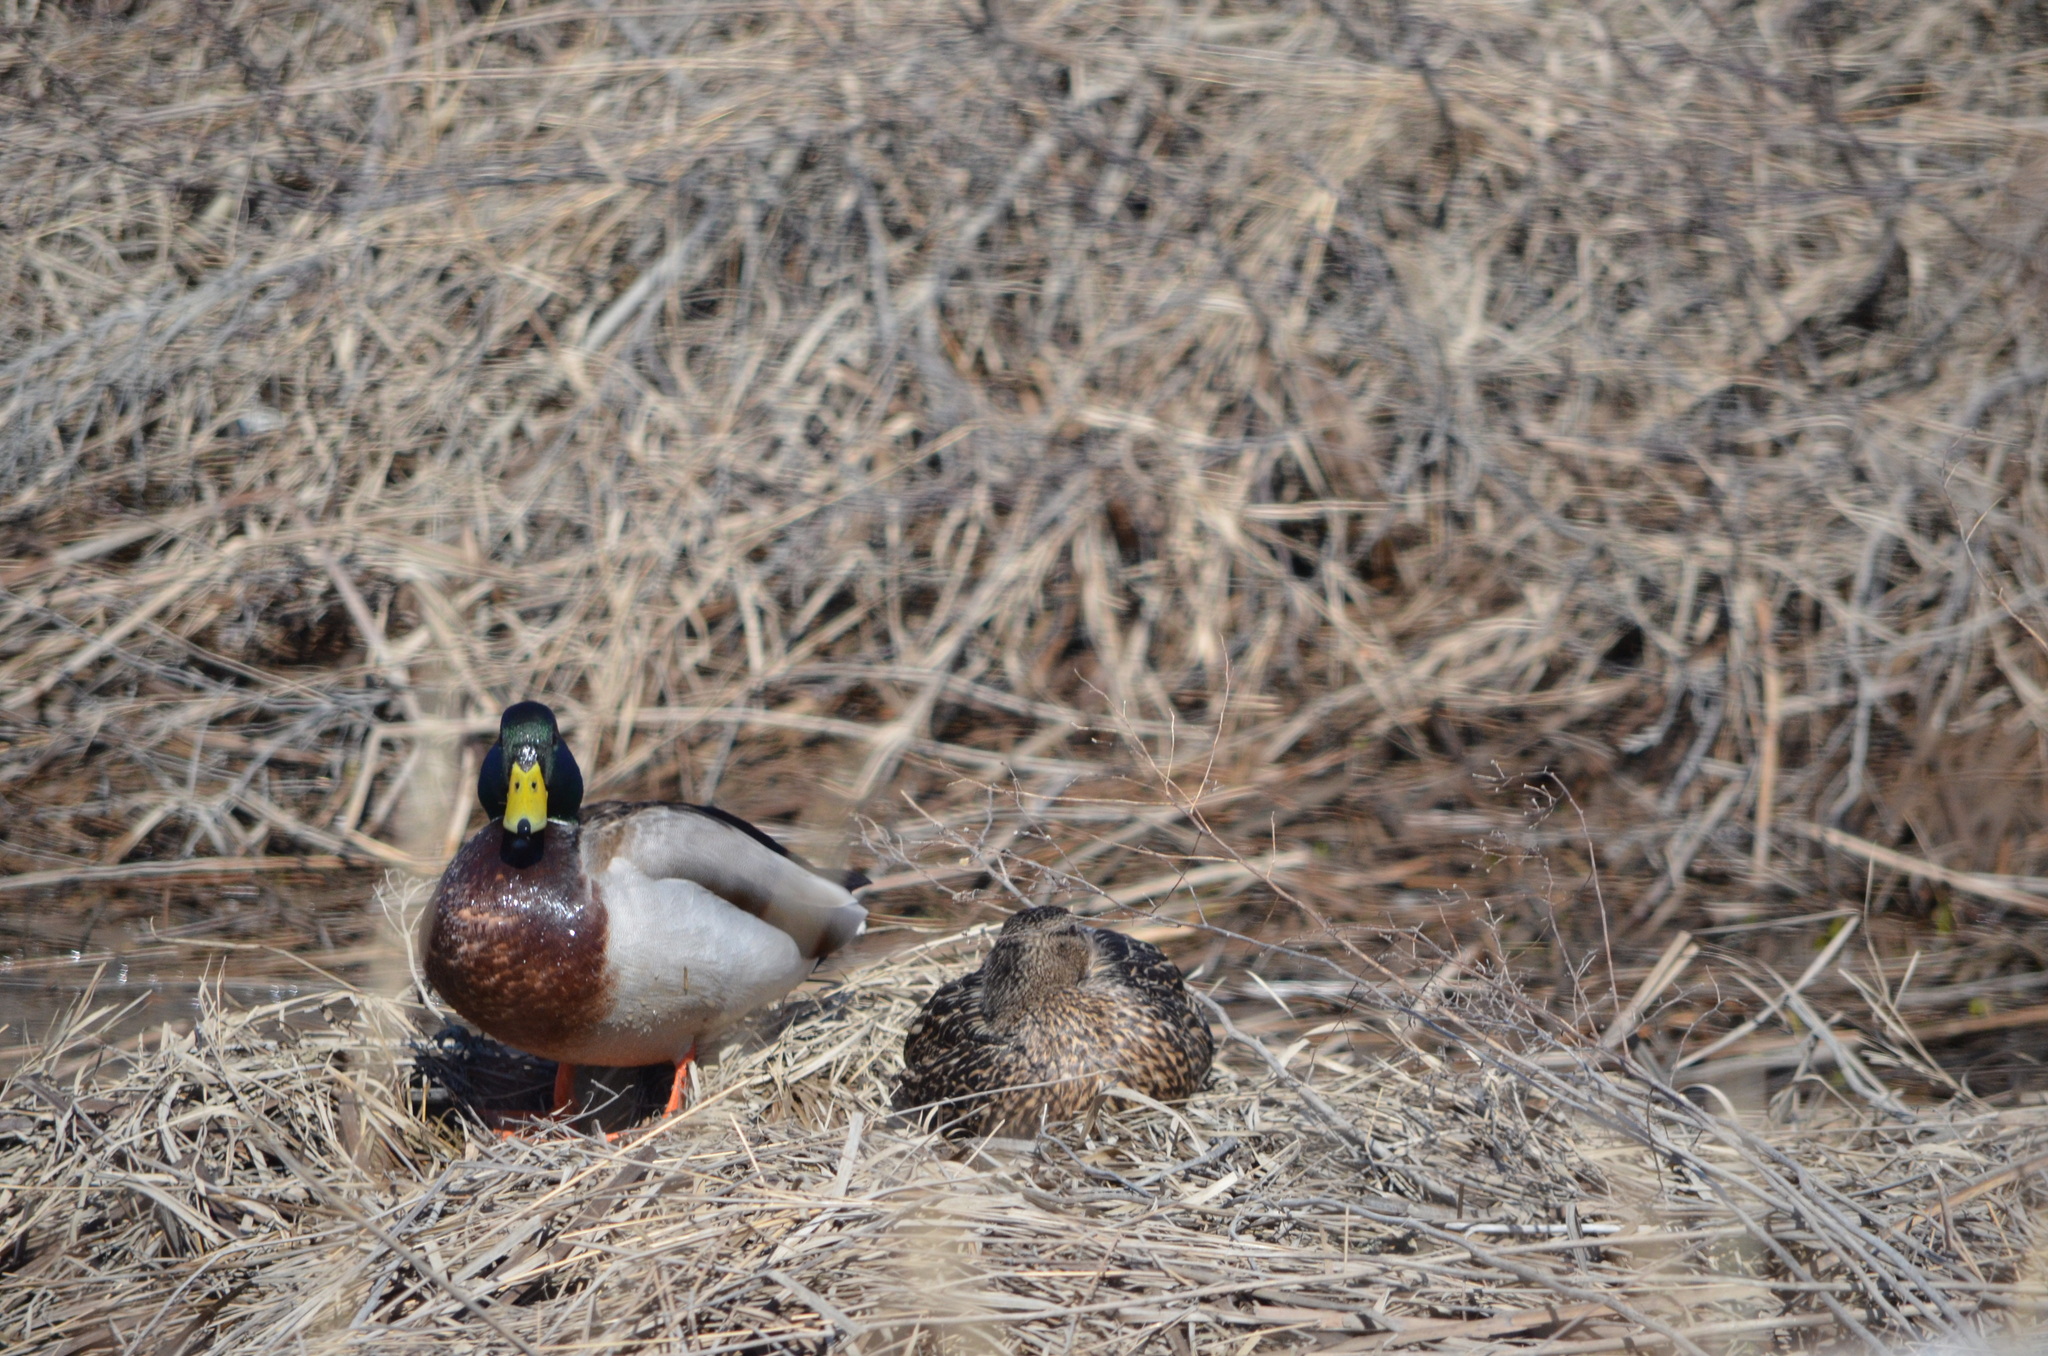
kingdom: Animalia
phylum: Chordata
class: Aves
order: Anseriformes
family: Anatidae
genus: Anas
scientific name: Anas platyrhynchos
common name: Mallard
